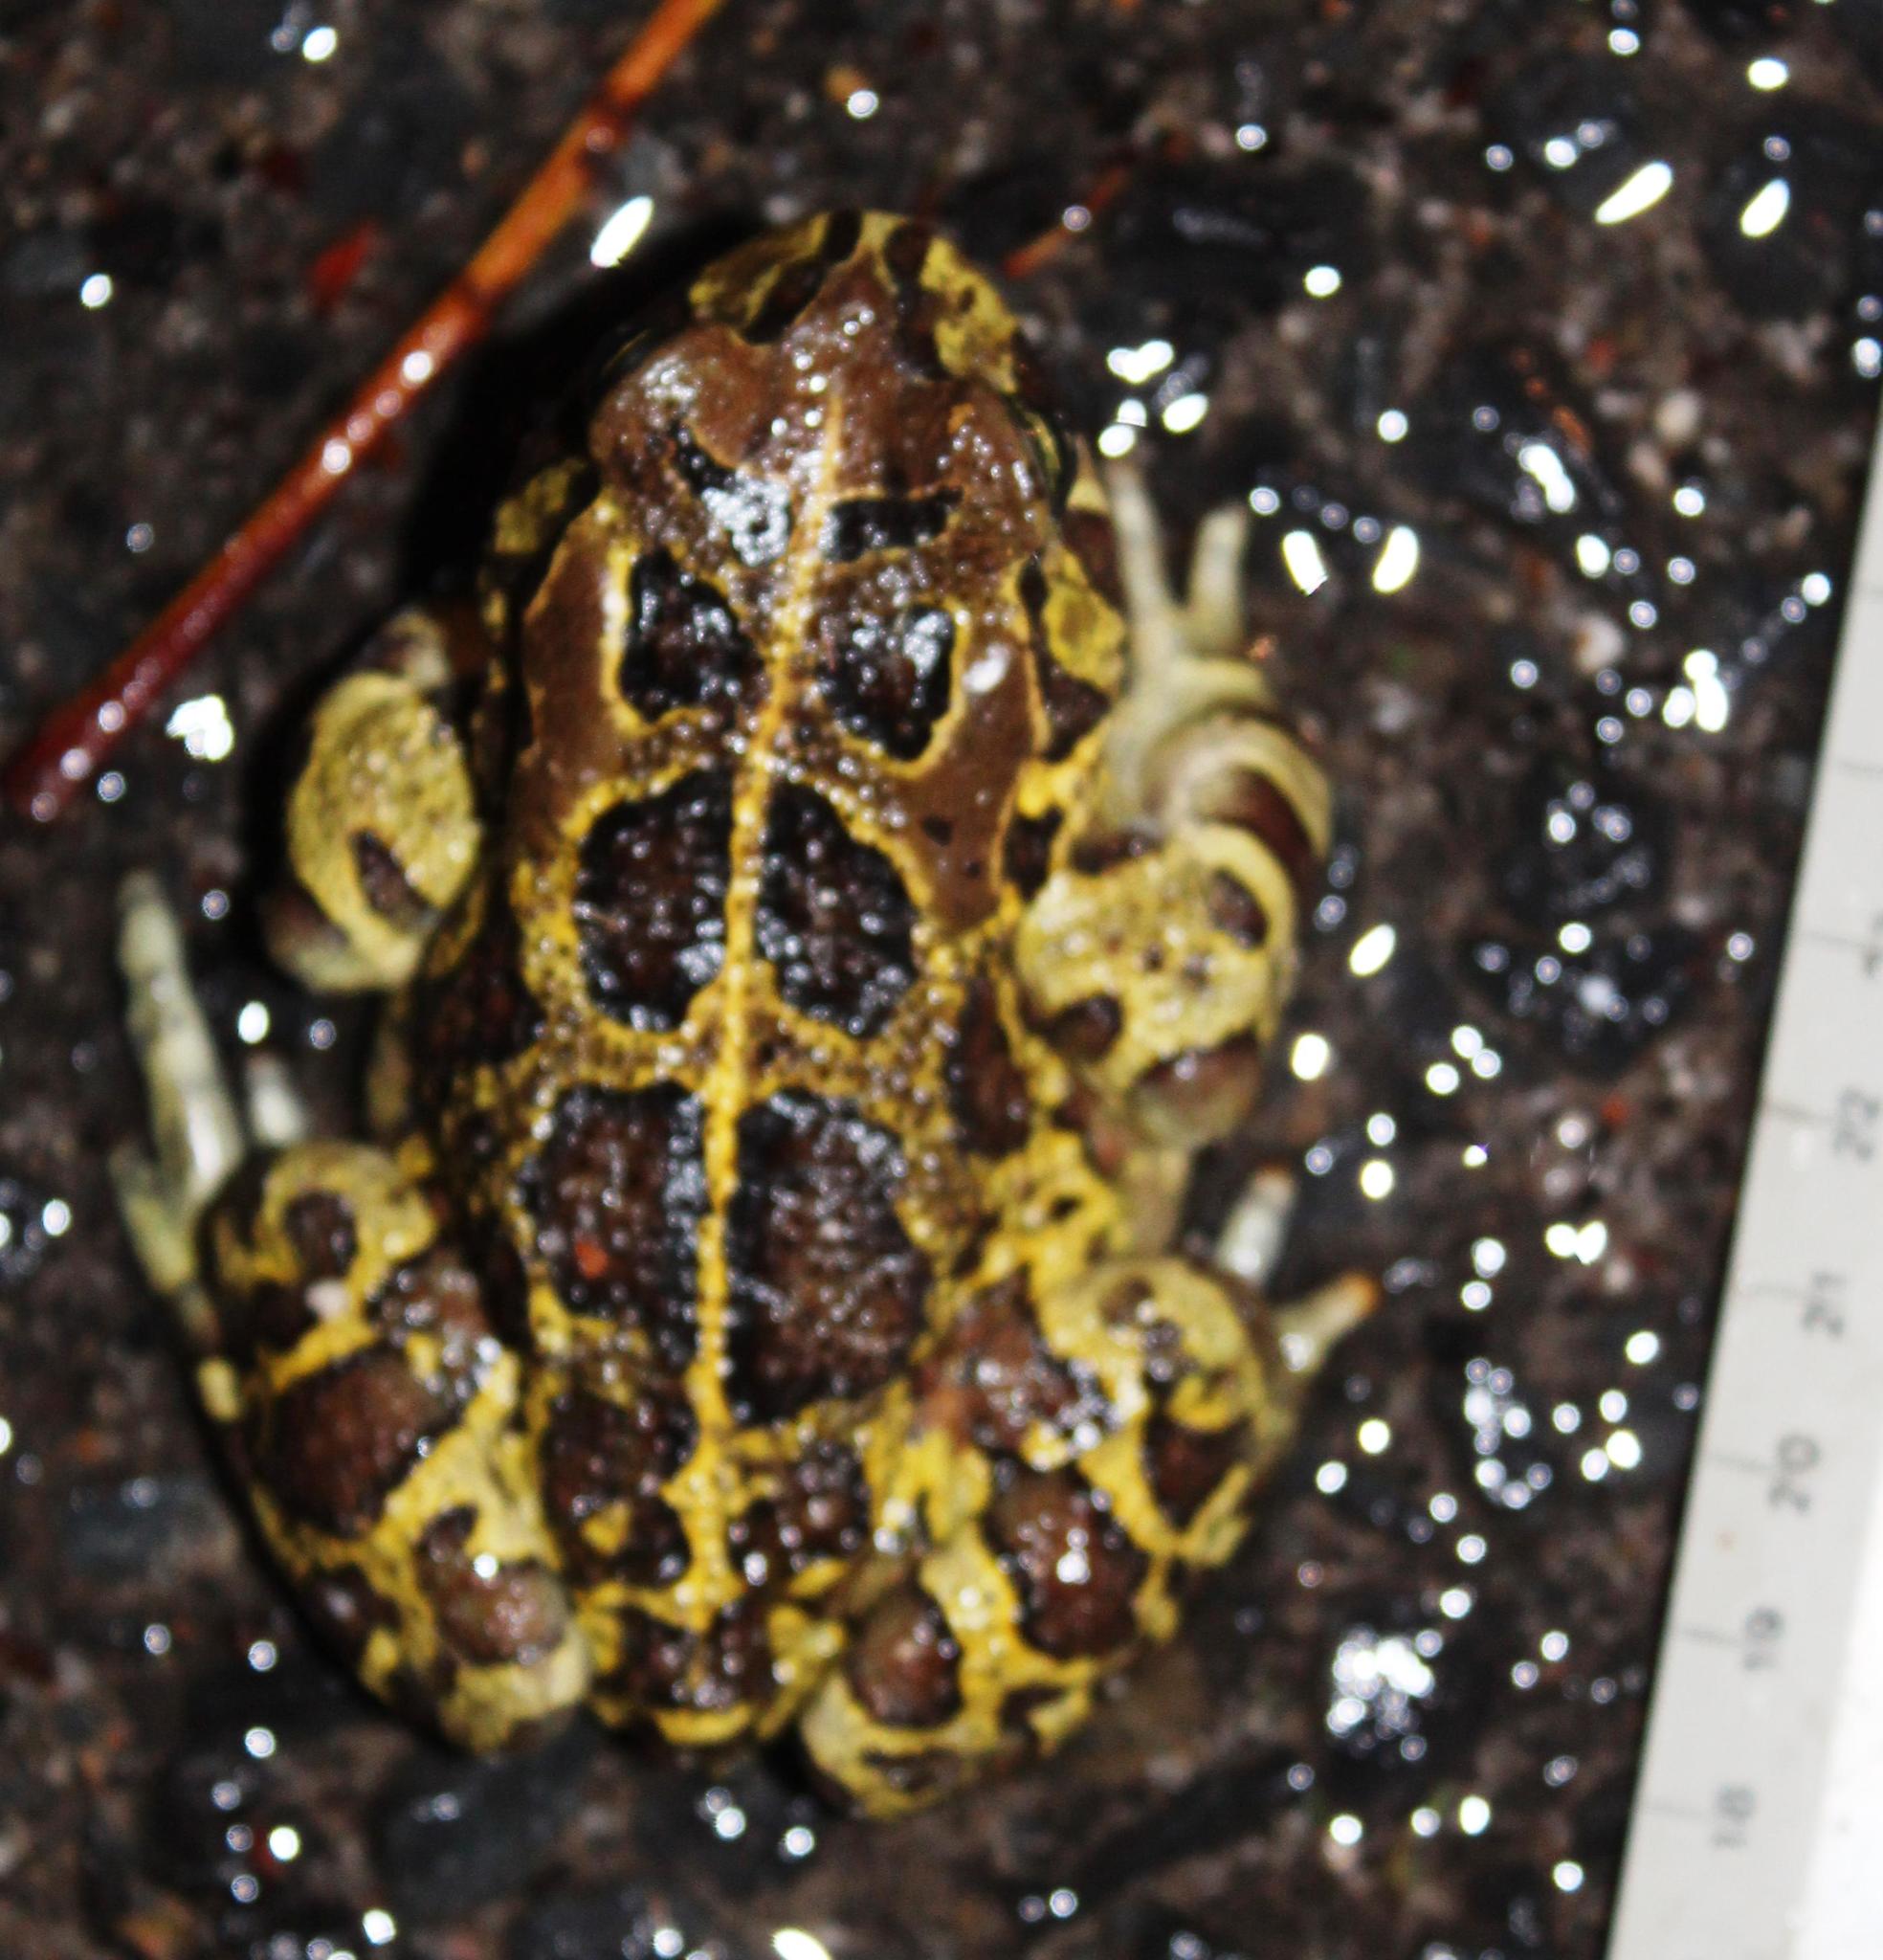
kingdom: Animalia
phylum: Chordata
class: Amphibia
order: Anura
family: Bufonidae
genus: Sclerophrys
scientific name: Sclerophrys pantherina
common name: Panther toad
